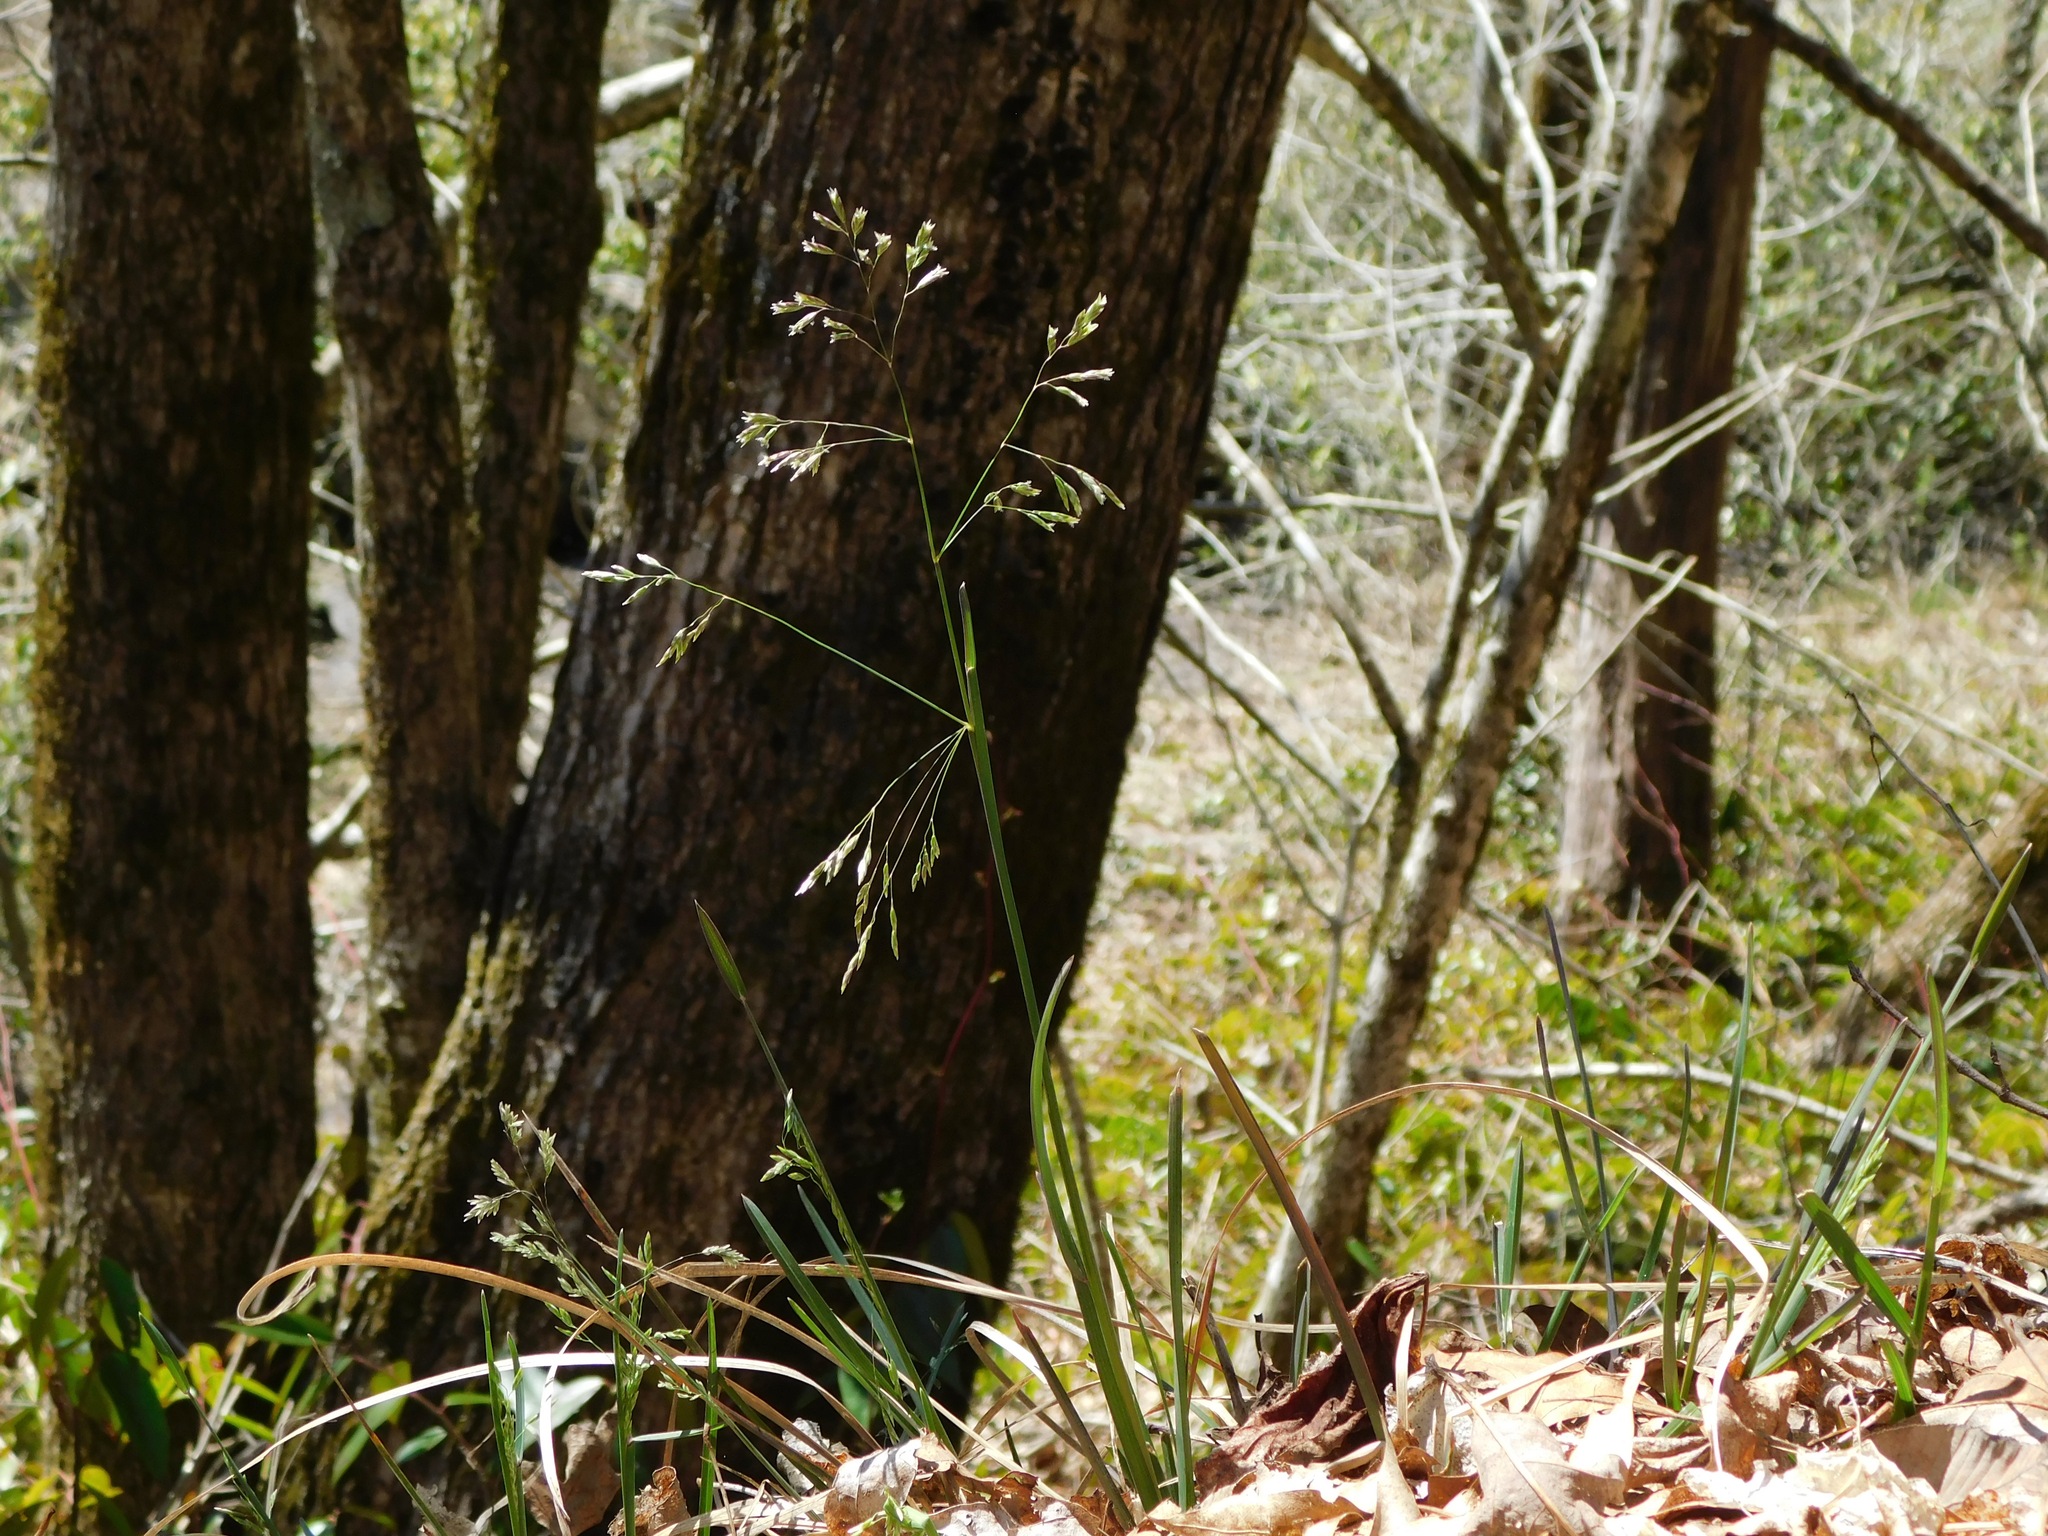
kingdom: Plantae
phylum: Tracheophyta
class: Liliopsida
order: Poales
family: Poaceae
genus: Poa
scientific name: Poa cuspidata
